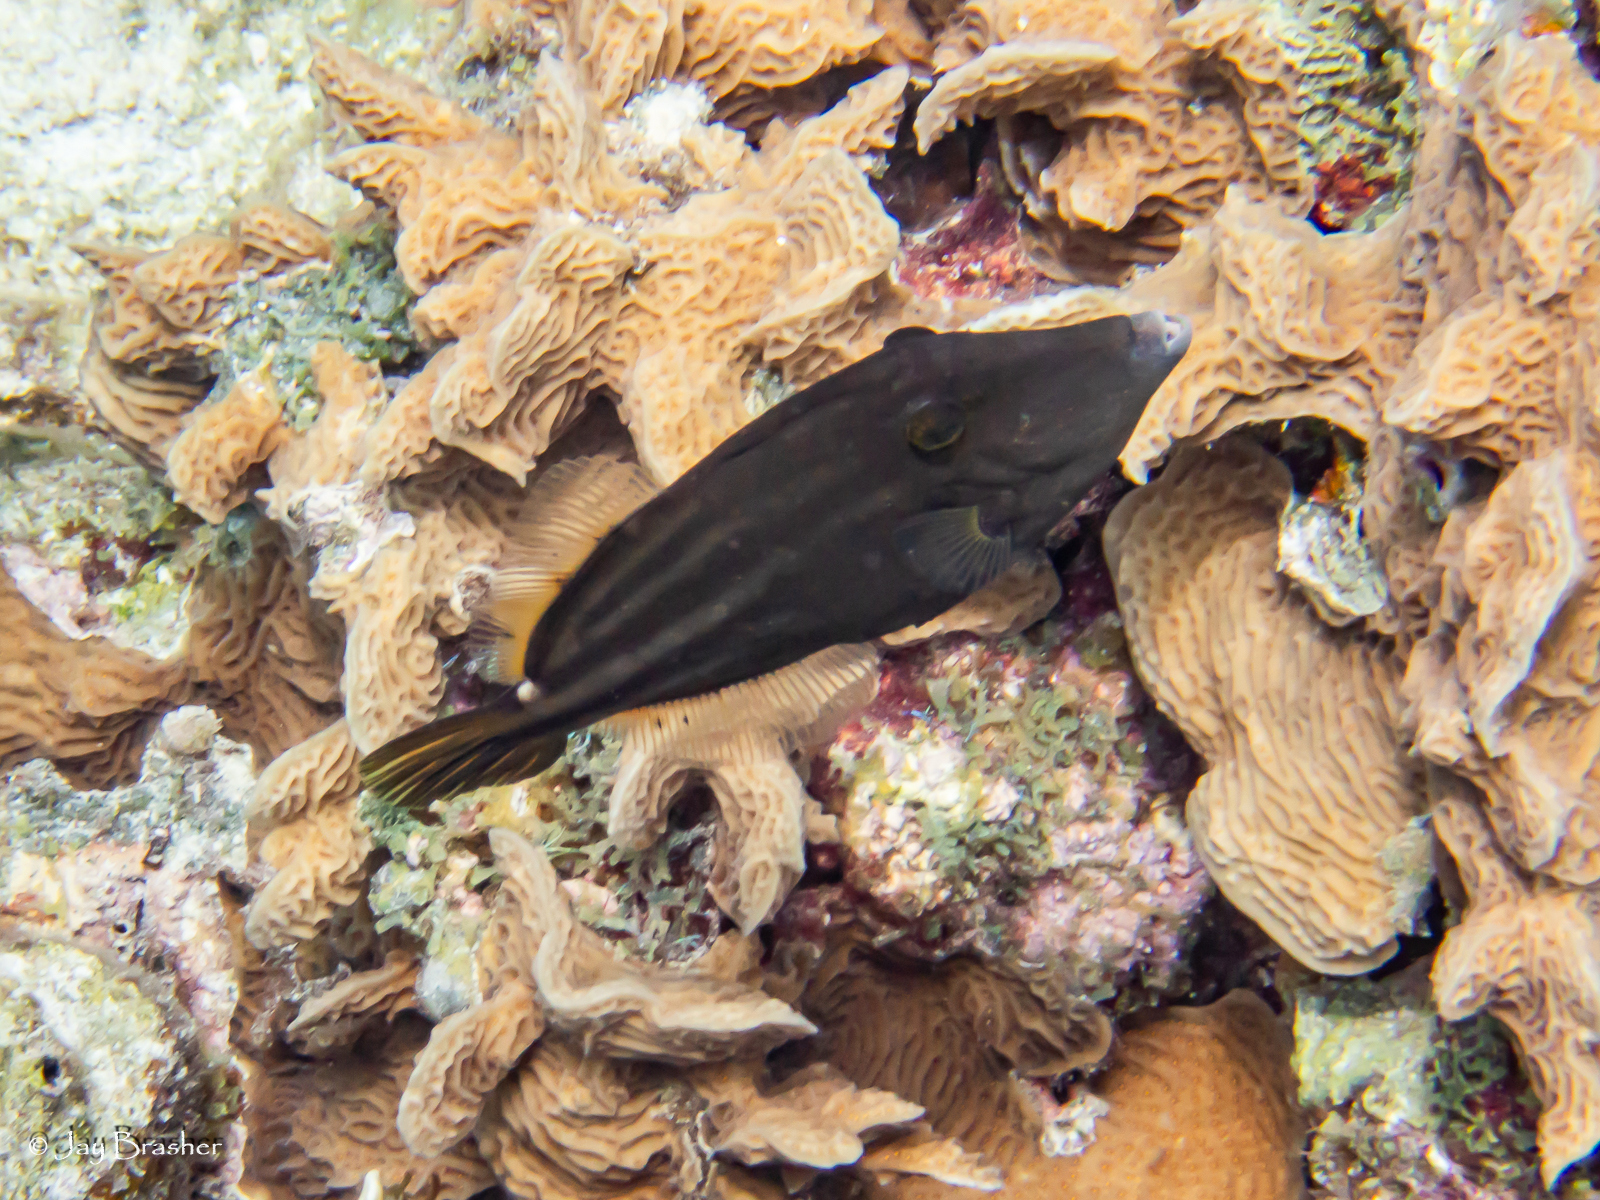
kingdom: Animalia
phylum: Chordata
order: Tetraodontiformes
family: Monacanthidae
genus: Cantherhines
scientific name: Cantherhines pullus
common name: Orangespotted filefish
